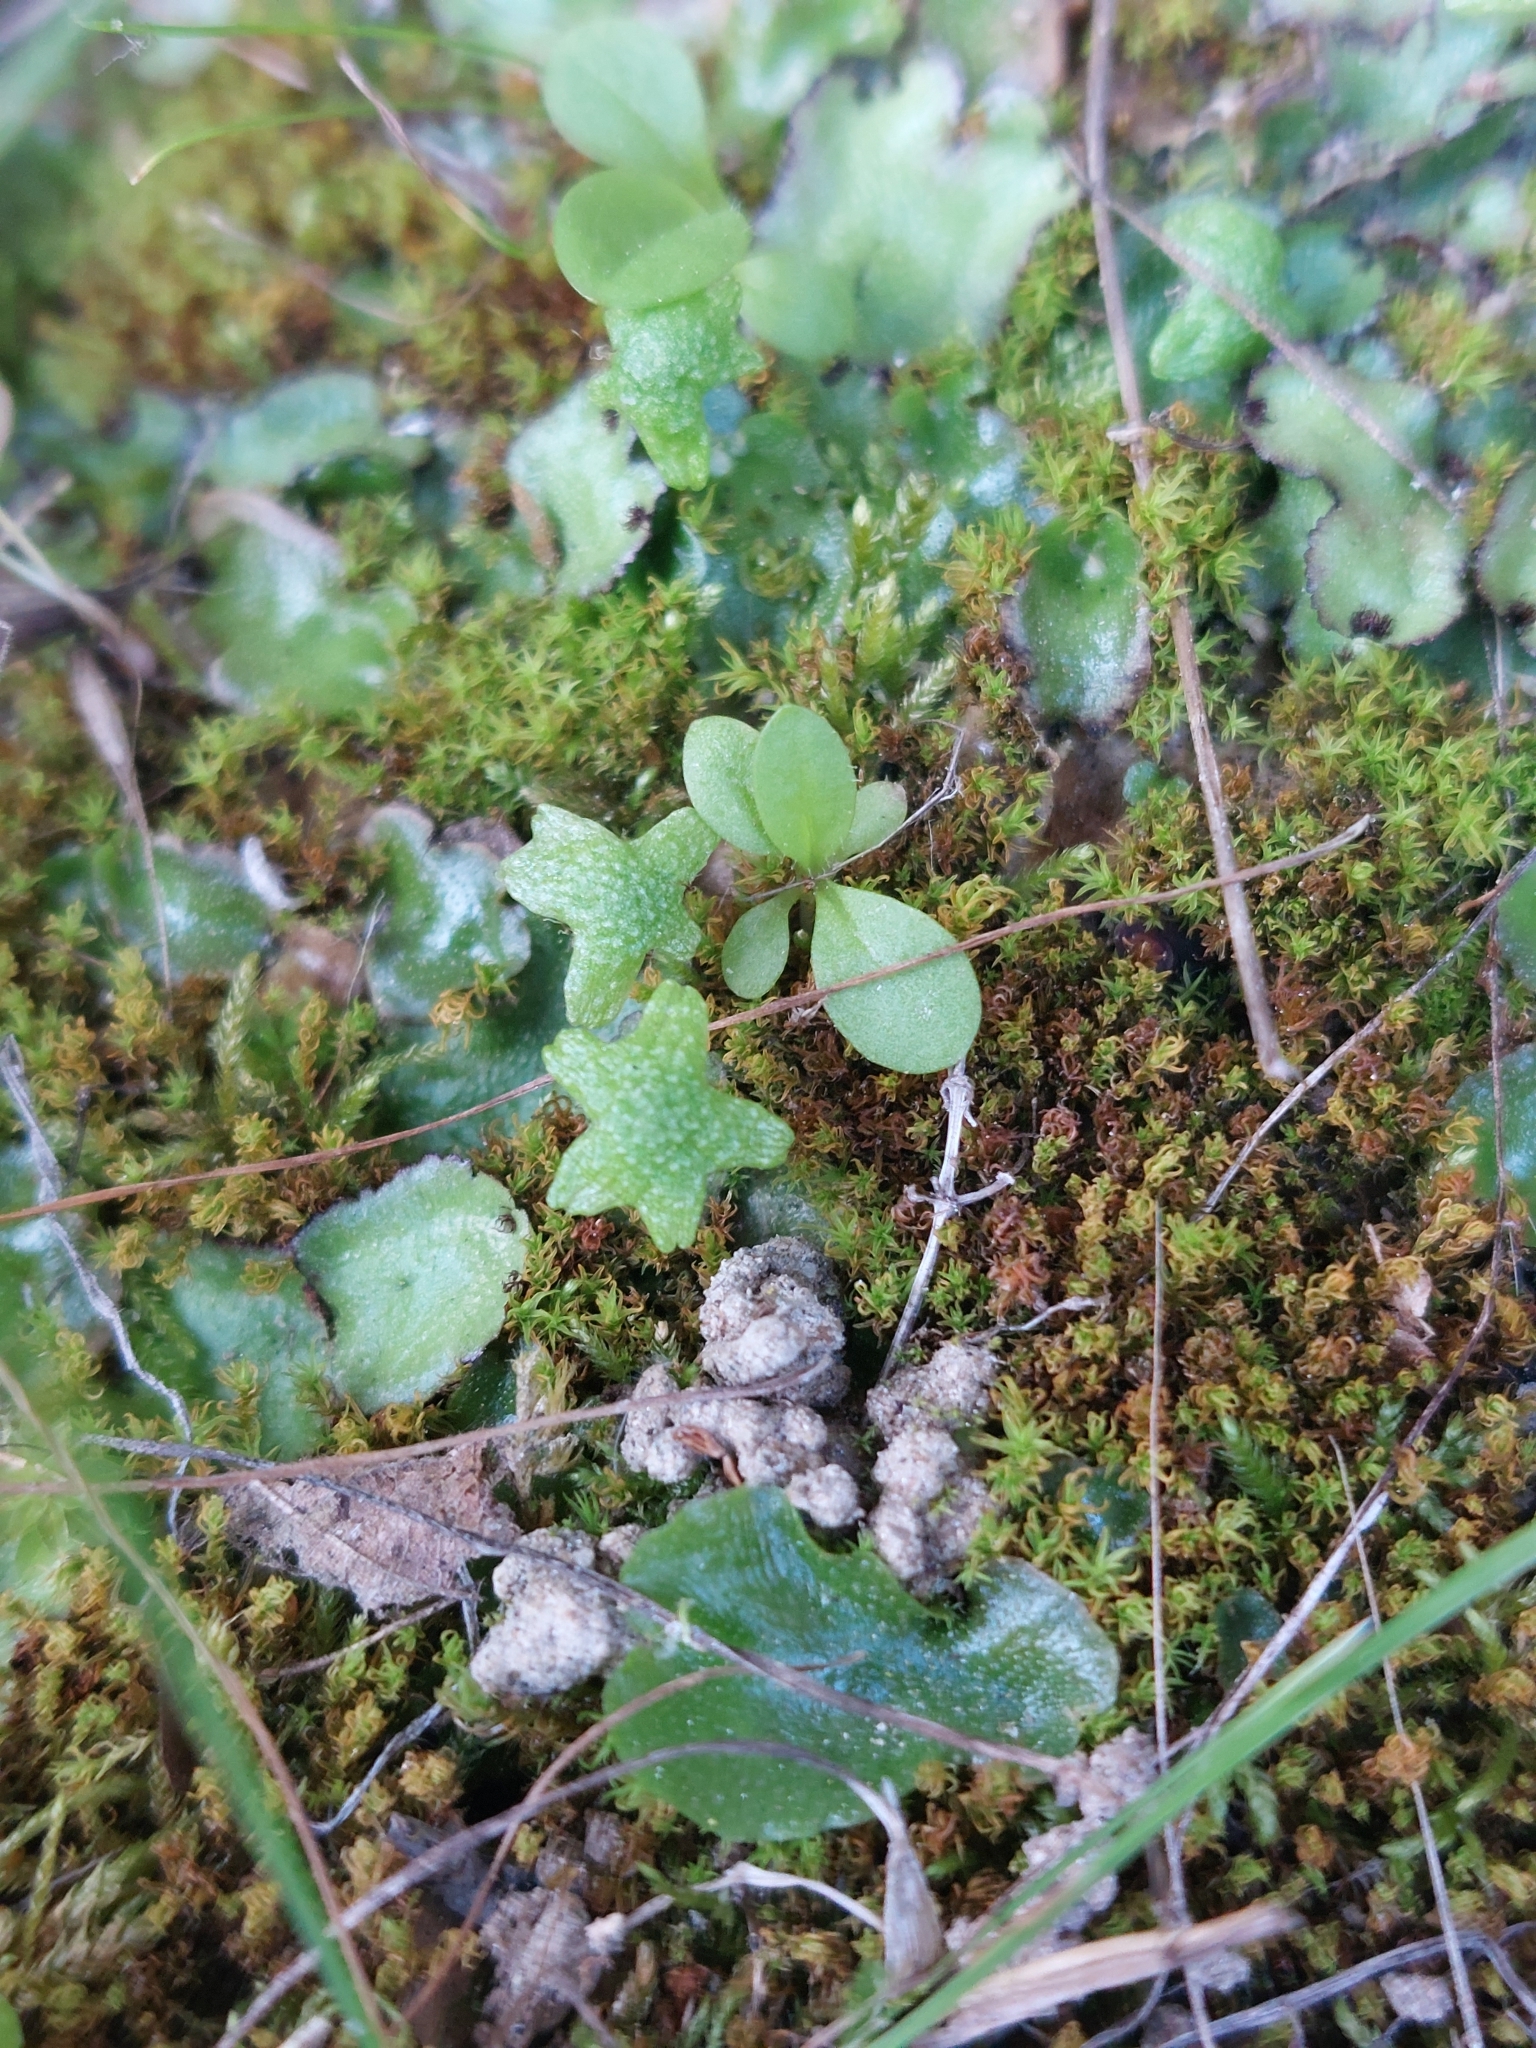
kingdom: Plantae
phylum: Marchantiophyta
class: Marchantiopsida
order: Marchantiales
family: Aytoniaceae
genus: Reboulia
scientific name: Reboulia hemisphaerica
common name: Purple-margined liverwort
